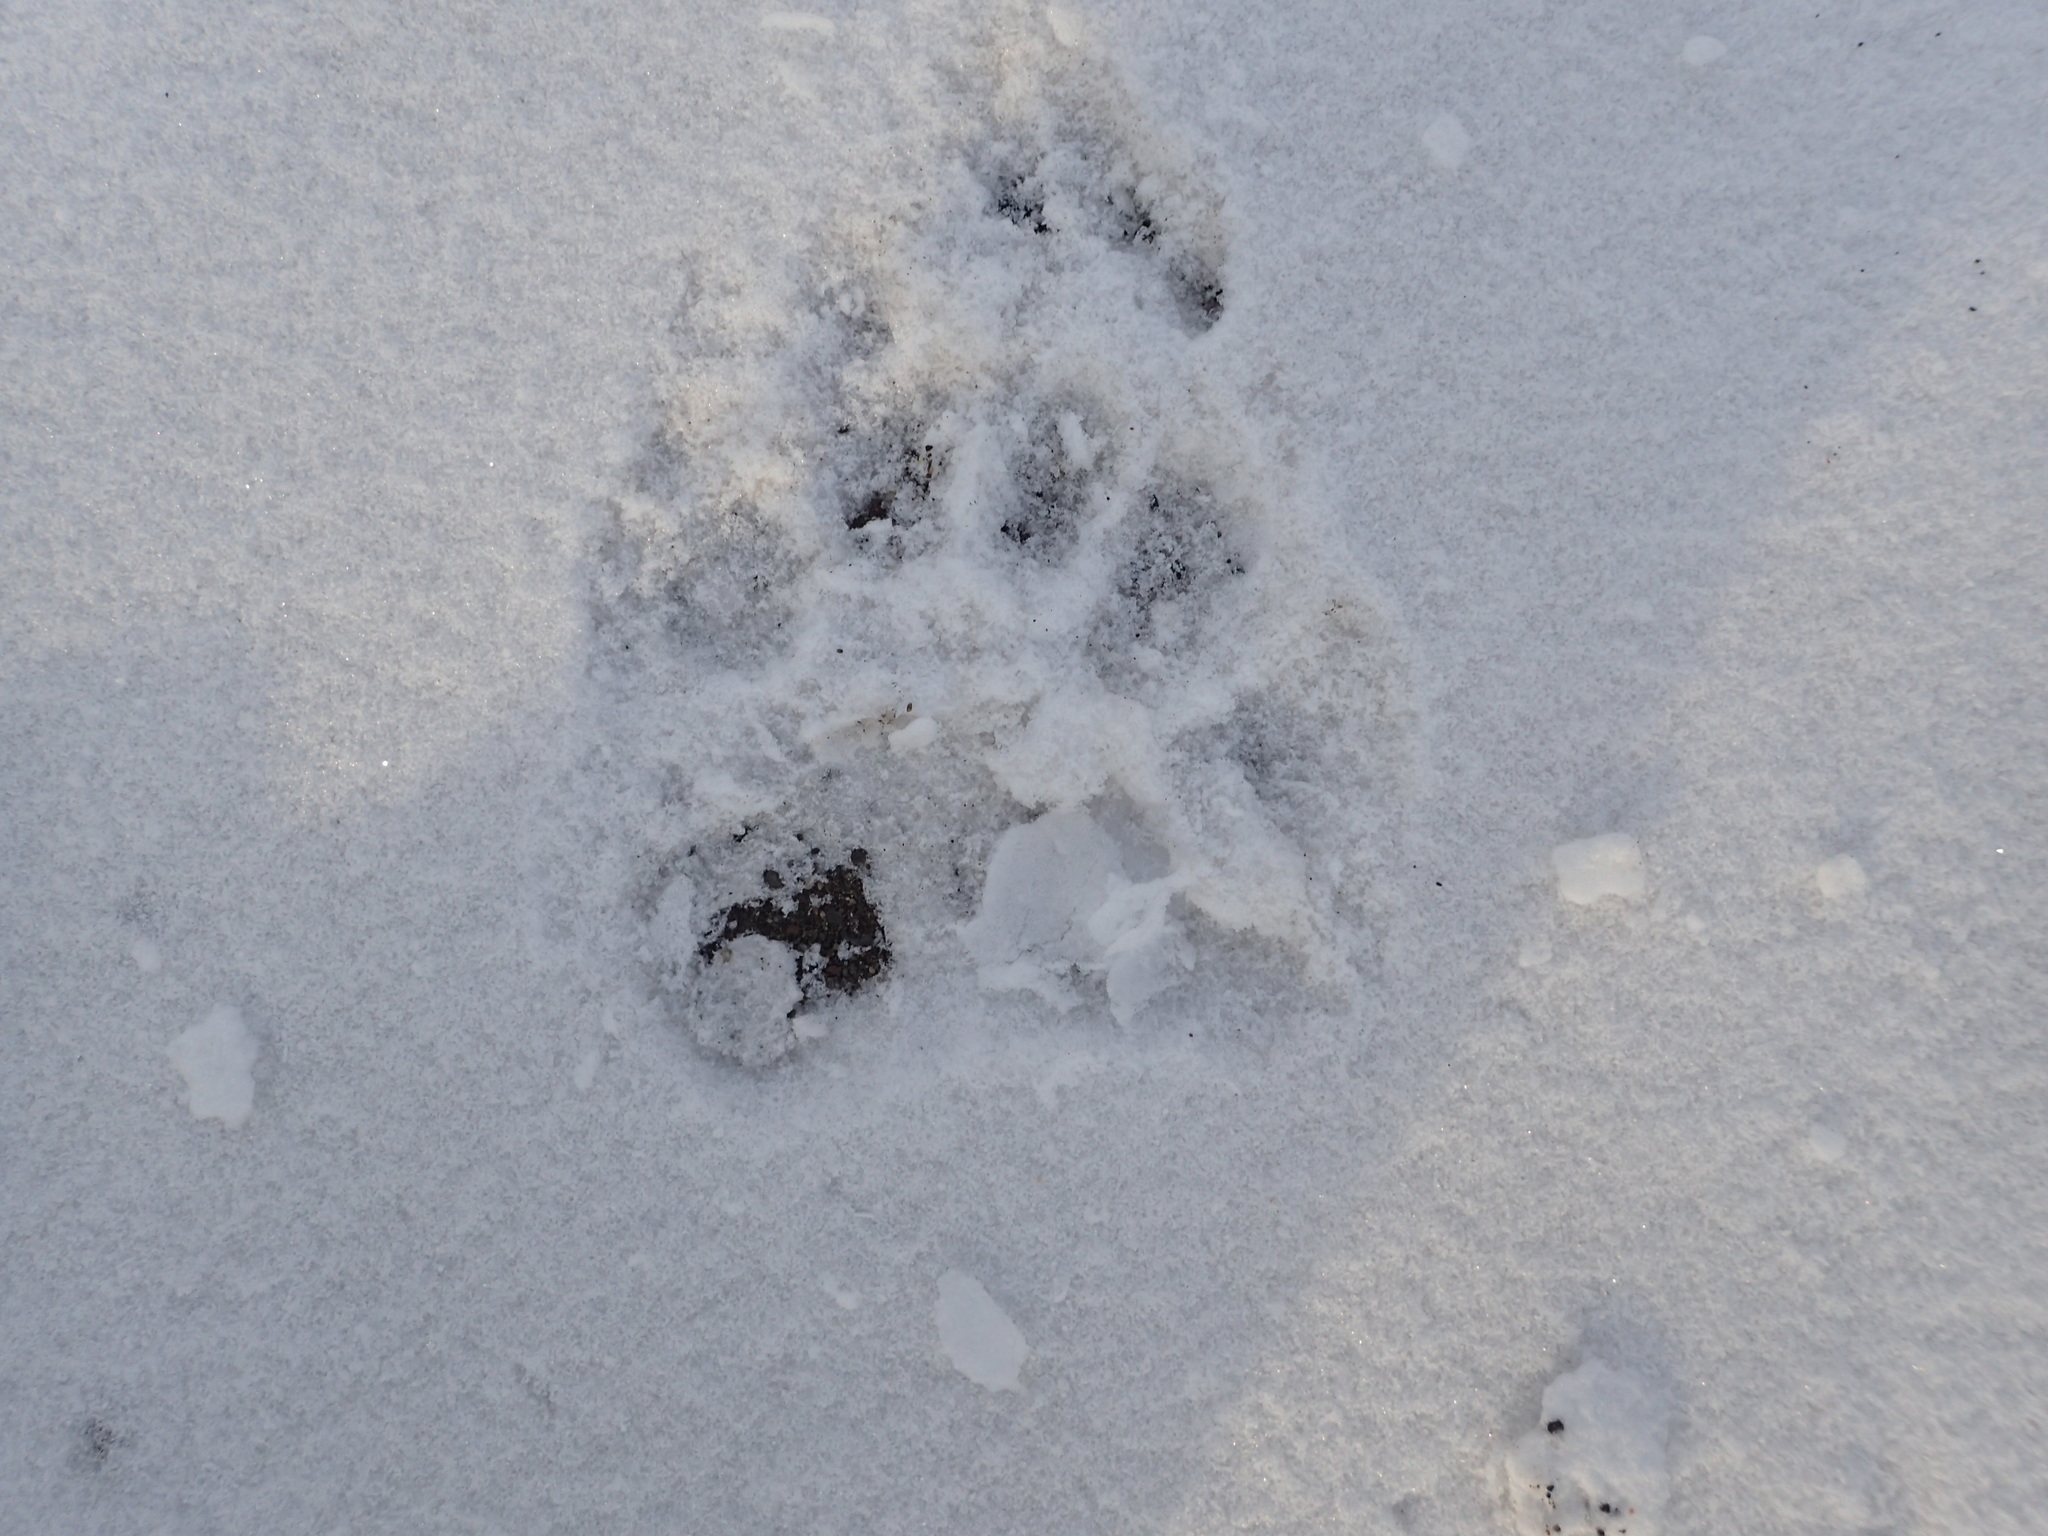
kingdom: Animalia
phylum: Chordata
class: Mammalia
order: Carnivora
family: Ursidae
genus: Ursus
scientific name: Ursus americanus
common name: American black bear
